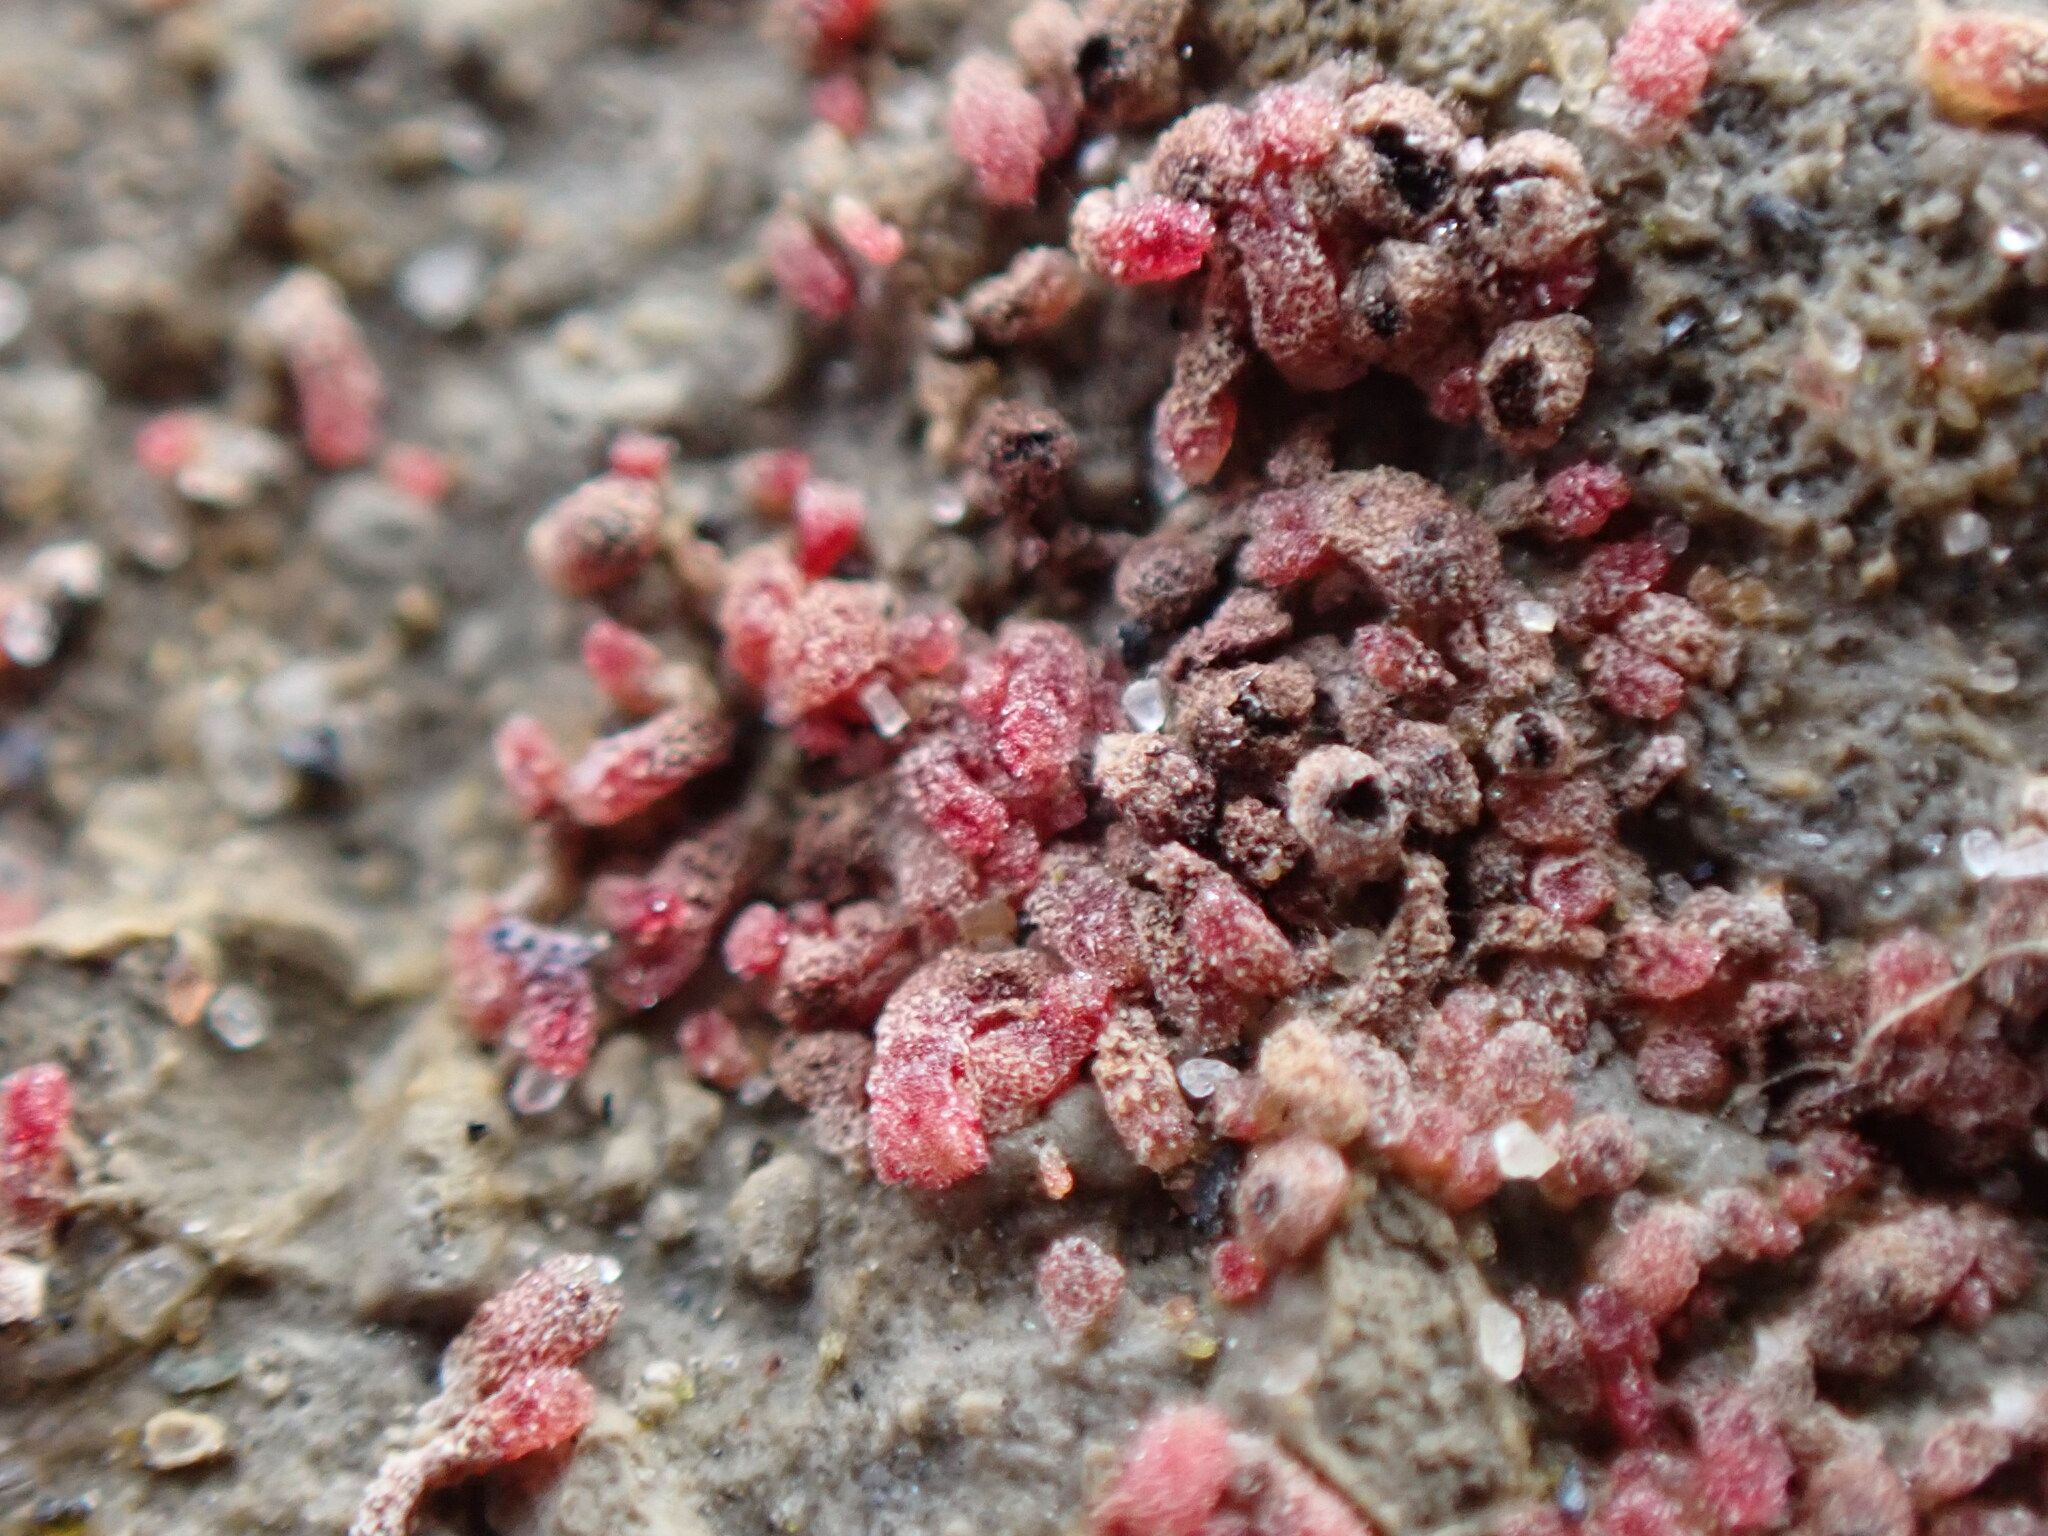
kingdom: Plantae
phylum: Marchantiophyta
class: Marchantiopsida
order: Marchantiales
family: Ricciaceae
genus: Riccia
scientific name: Riccia frostii
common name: Frost s crystalwort
